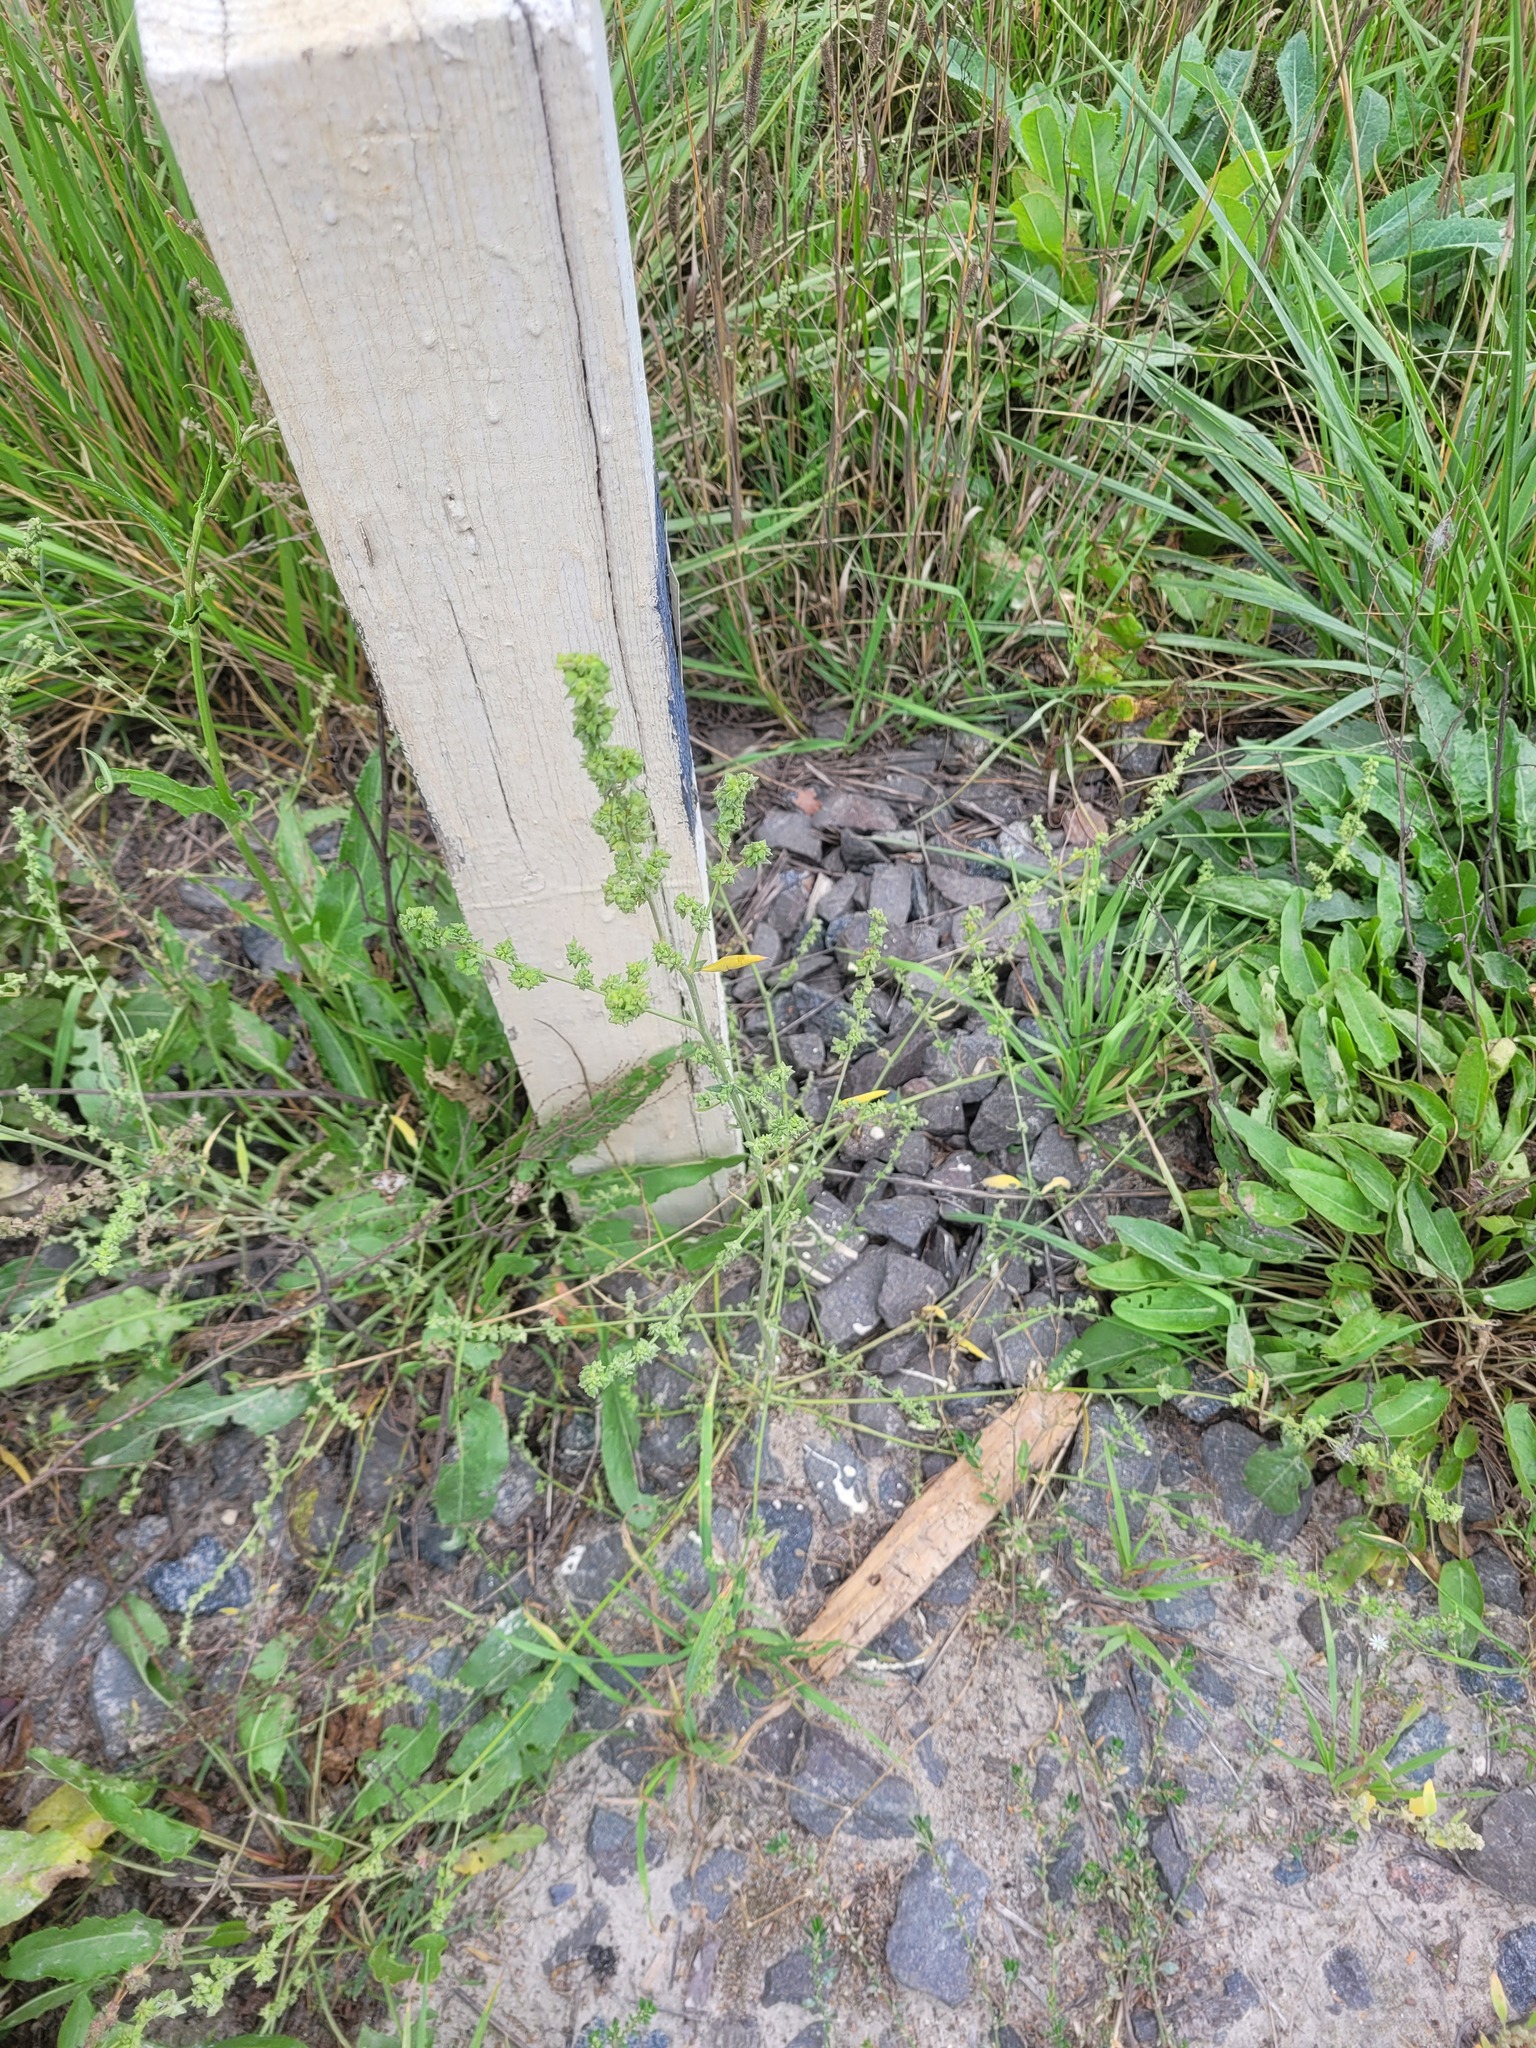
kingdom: Plantae
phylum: Tracheophyta
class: Magnoliopsida
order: Caryophyllales
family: Amaranthaceae
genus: Atriplex
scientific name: Atriplex patula
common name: Common orache
